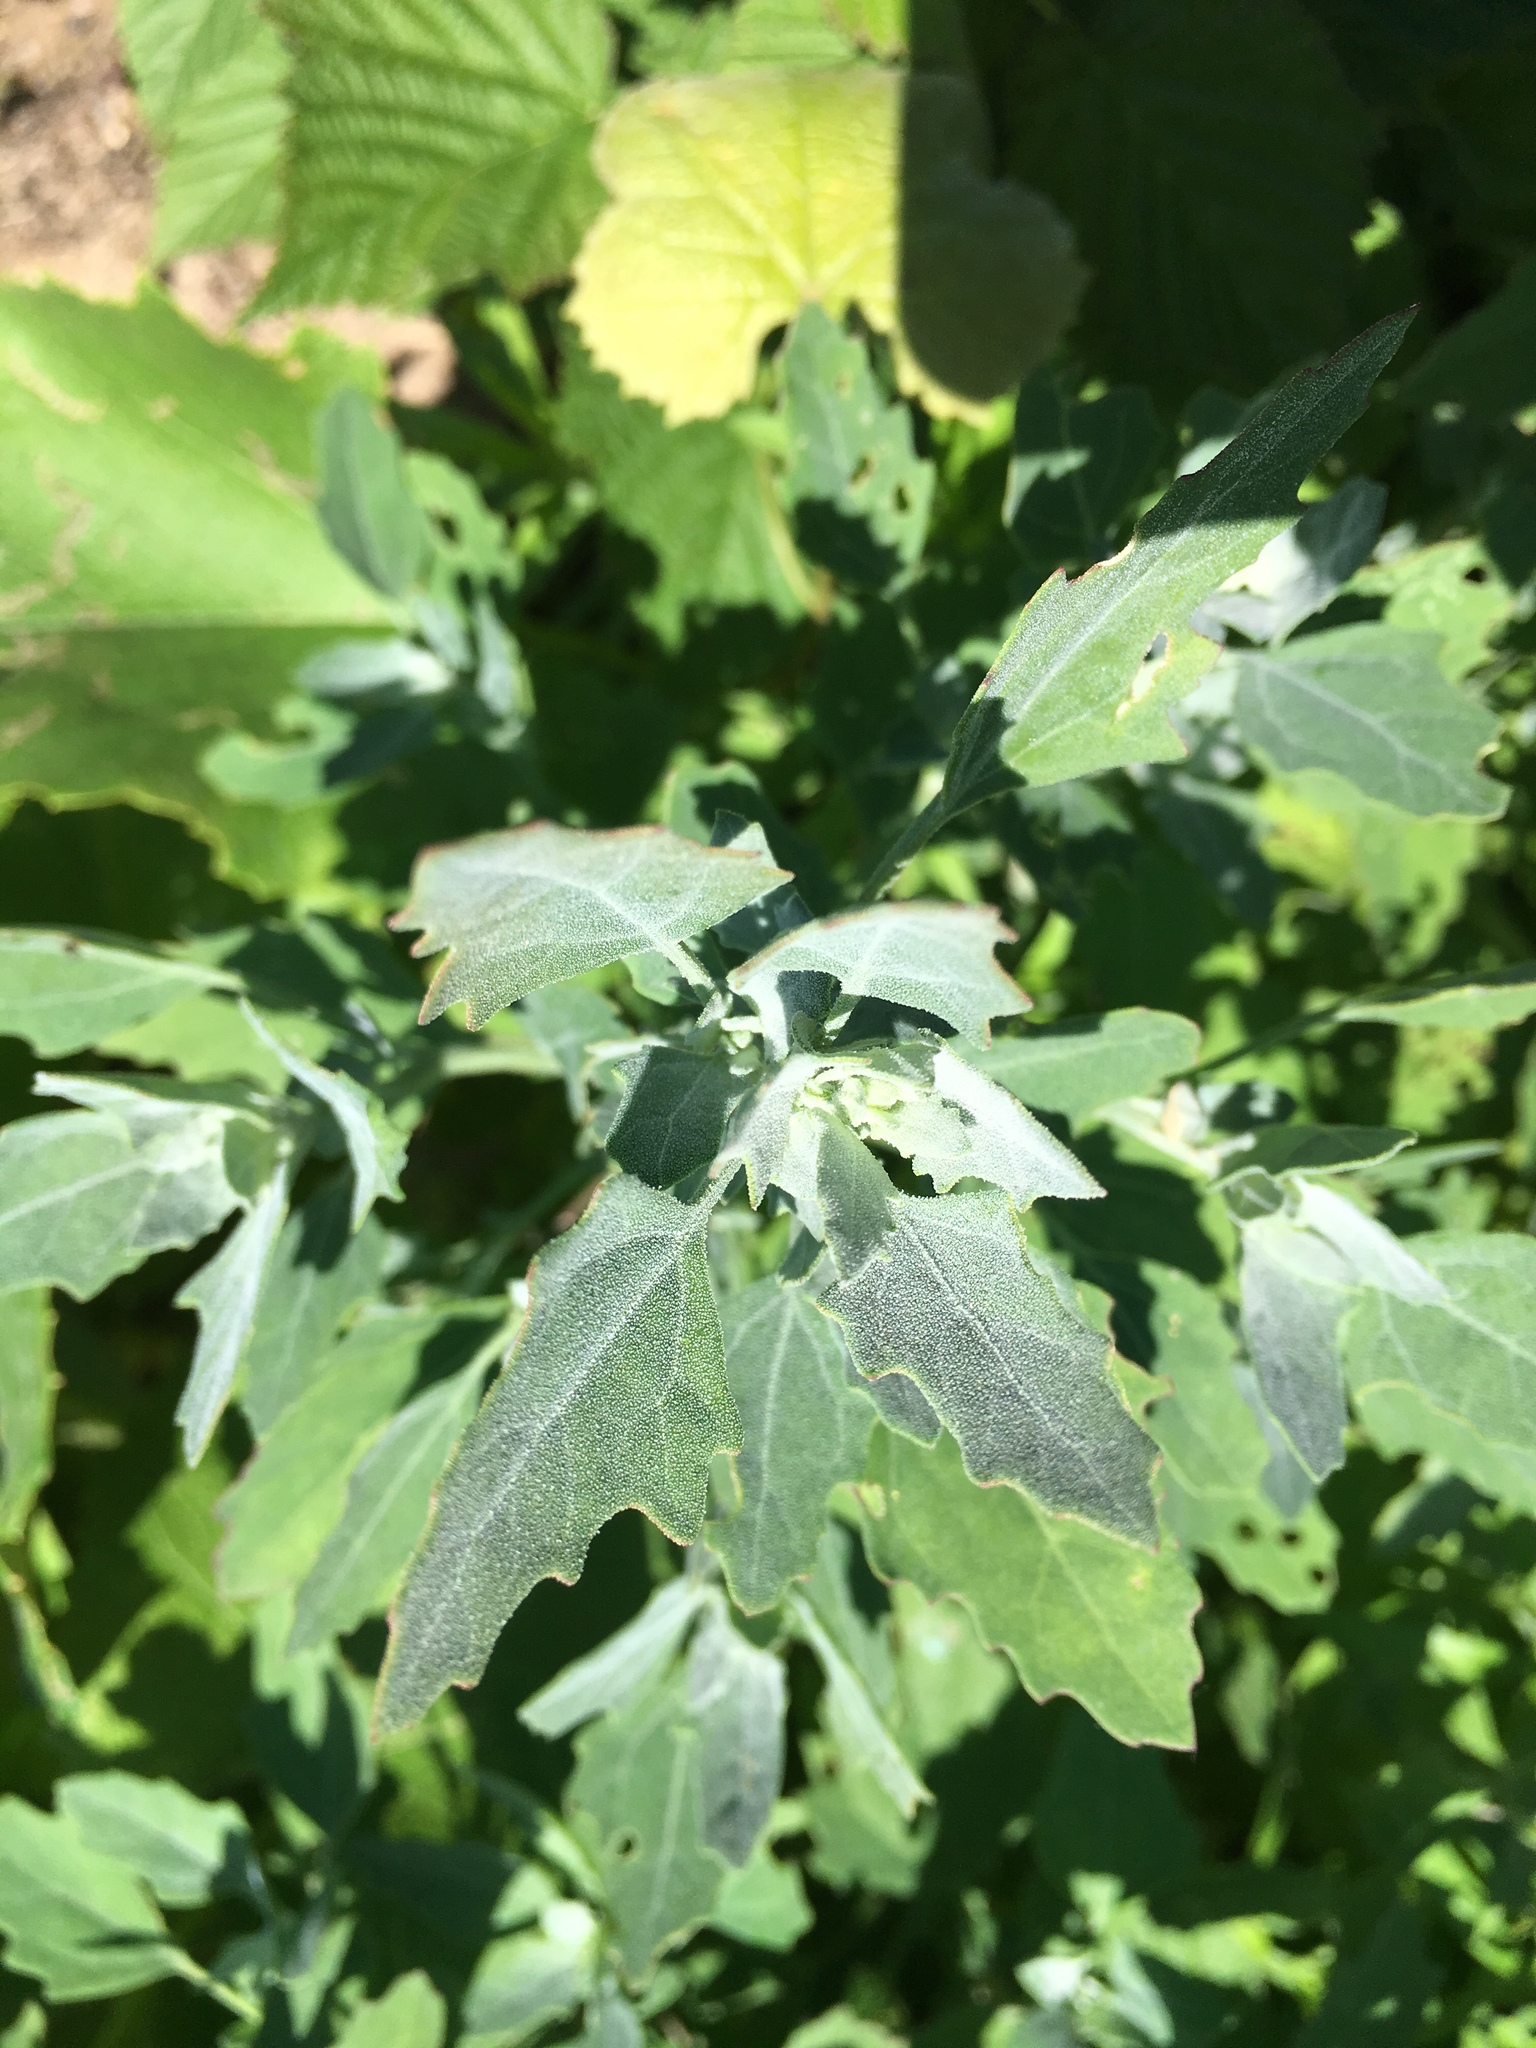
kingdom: Plantae
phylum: Tracheophyta
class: Magnoliopsida
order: Caryophyllales
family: Amaranthaceae
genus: Chenopodium
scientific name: Chenopodium album
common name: Fat-hen
